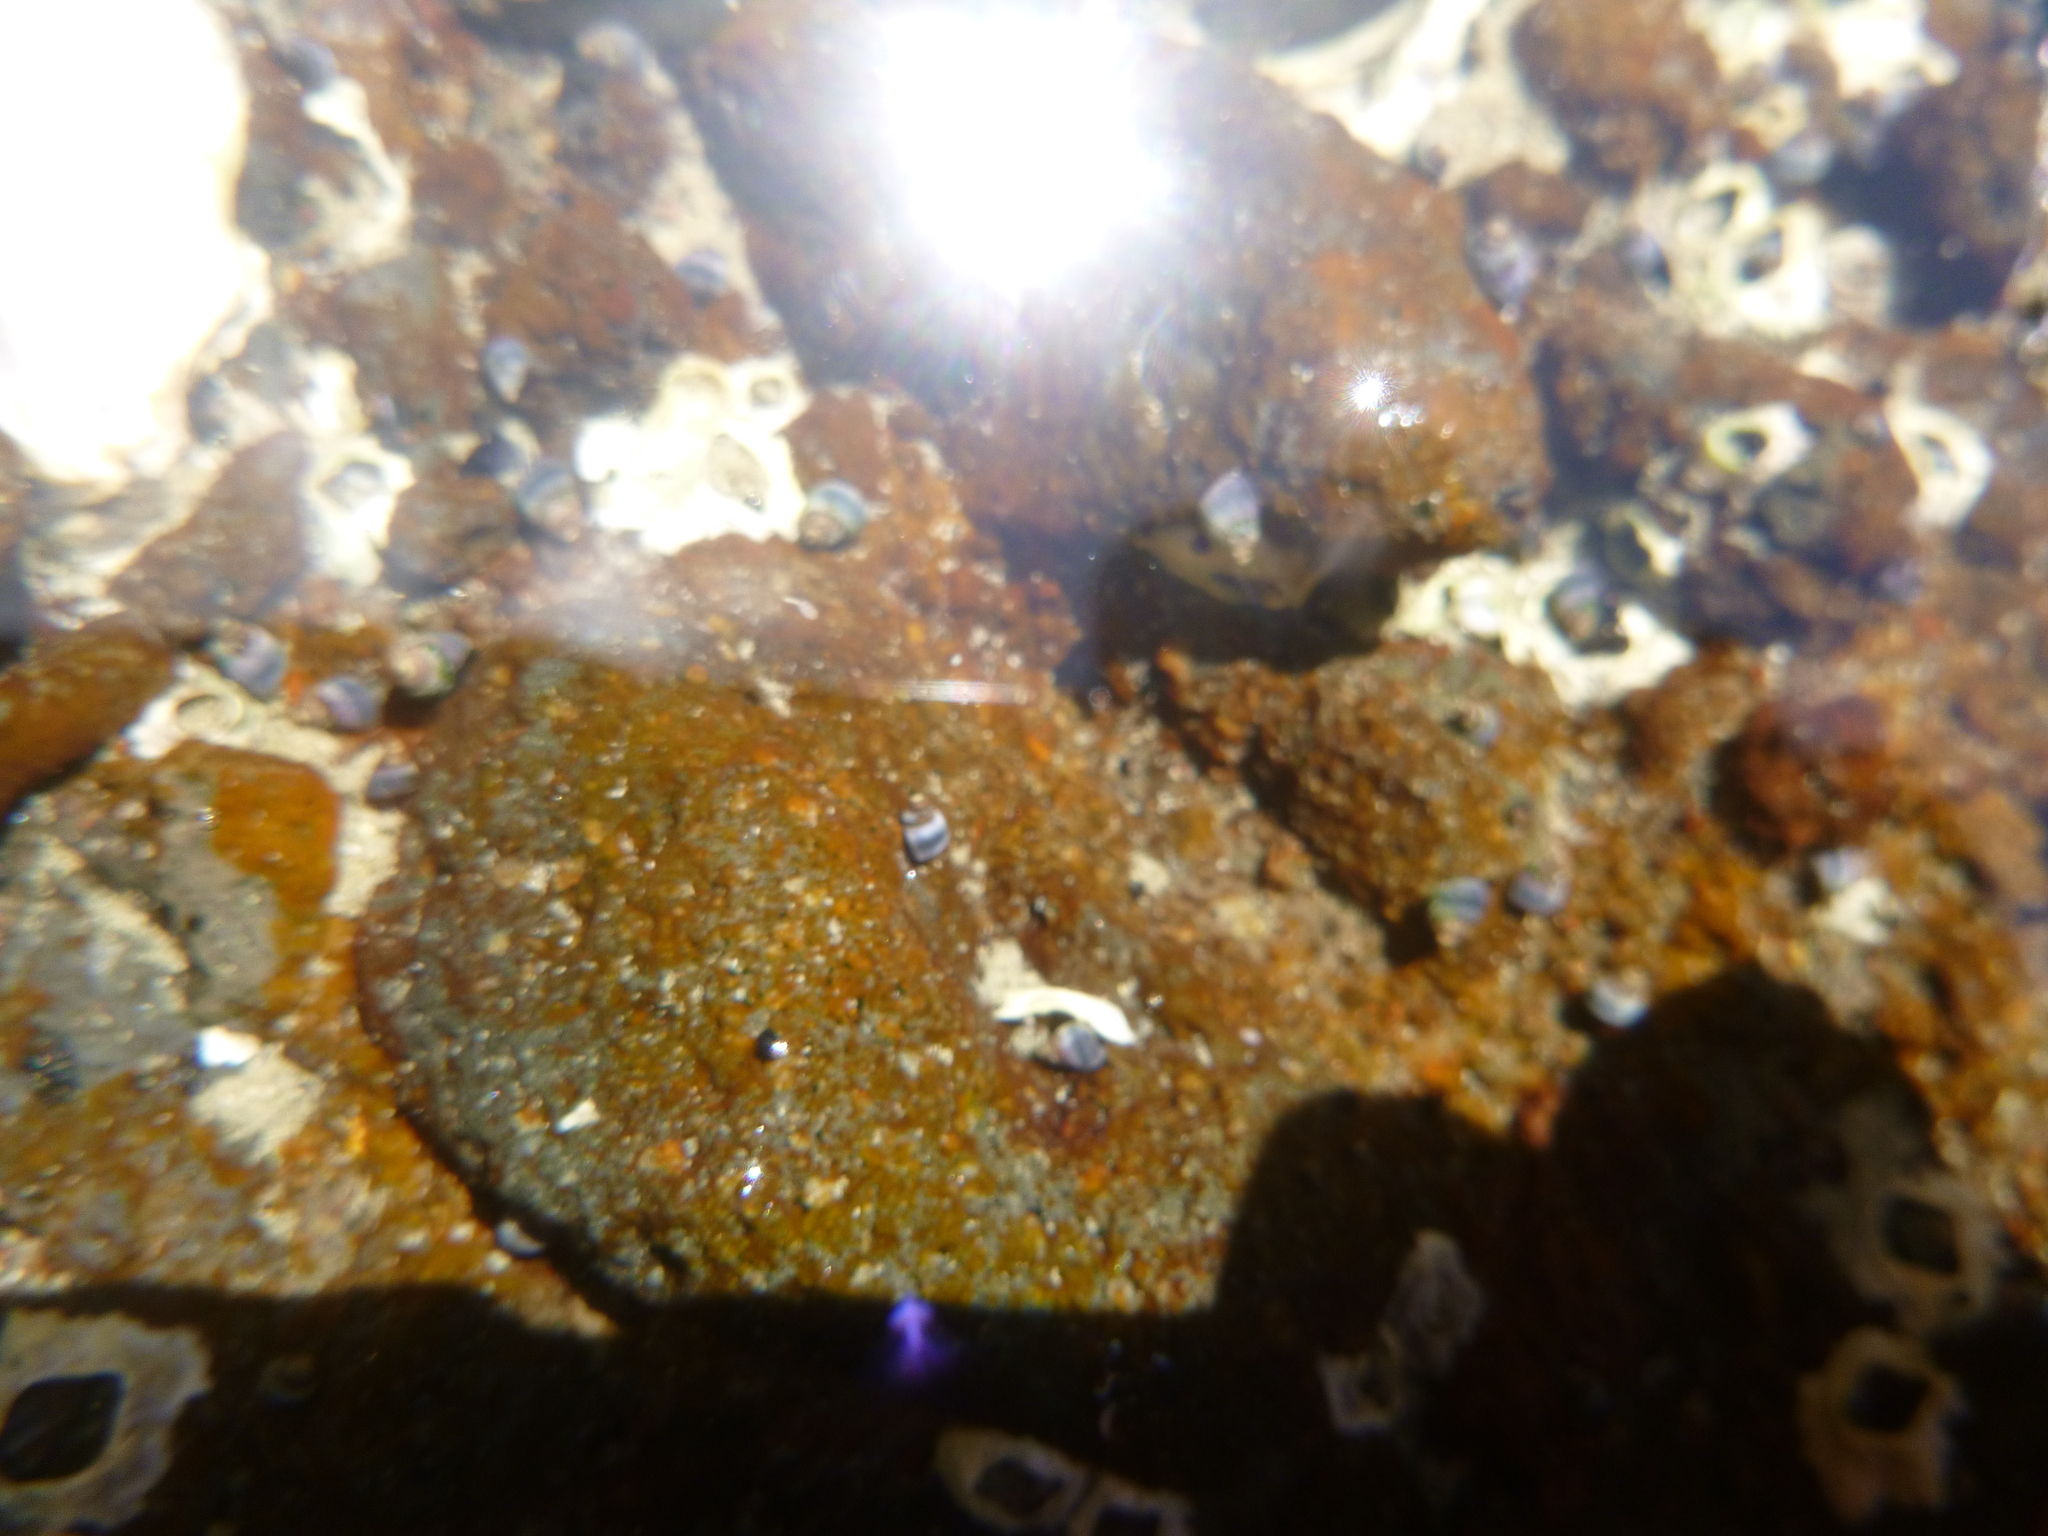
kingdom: Animalia
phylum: Mollusca
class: Gastropoda
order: Littorinimorpha
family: Littorinidae
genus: Austrolittorina
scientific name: Austrolittorina antipodum
